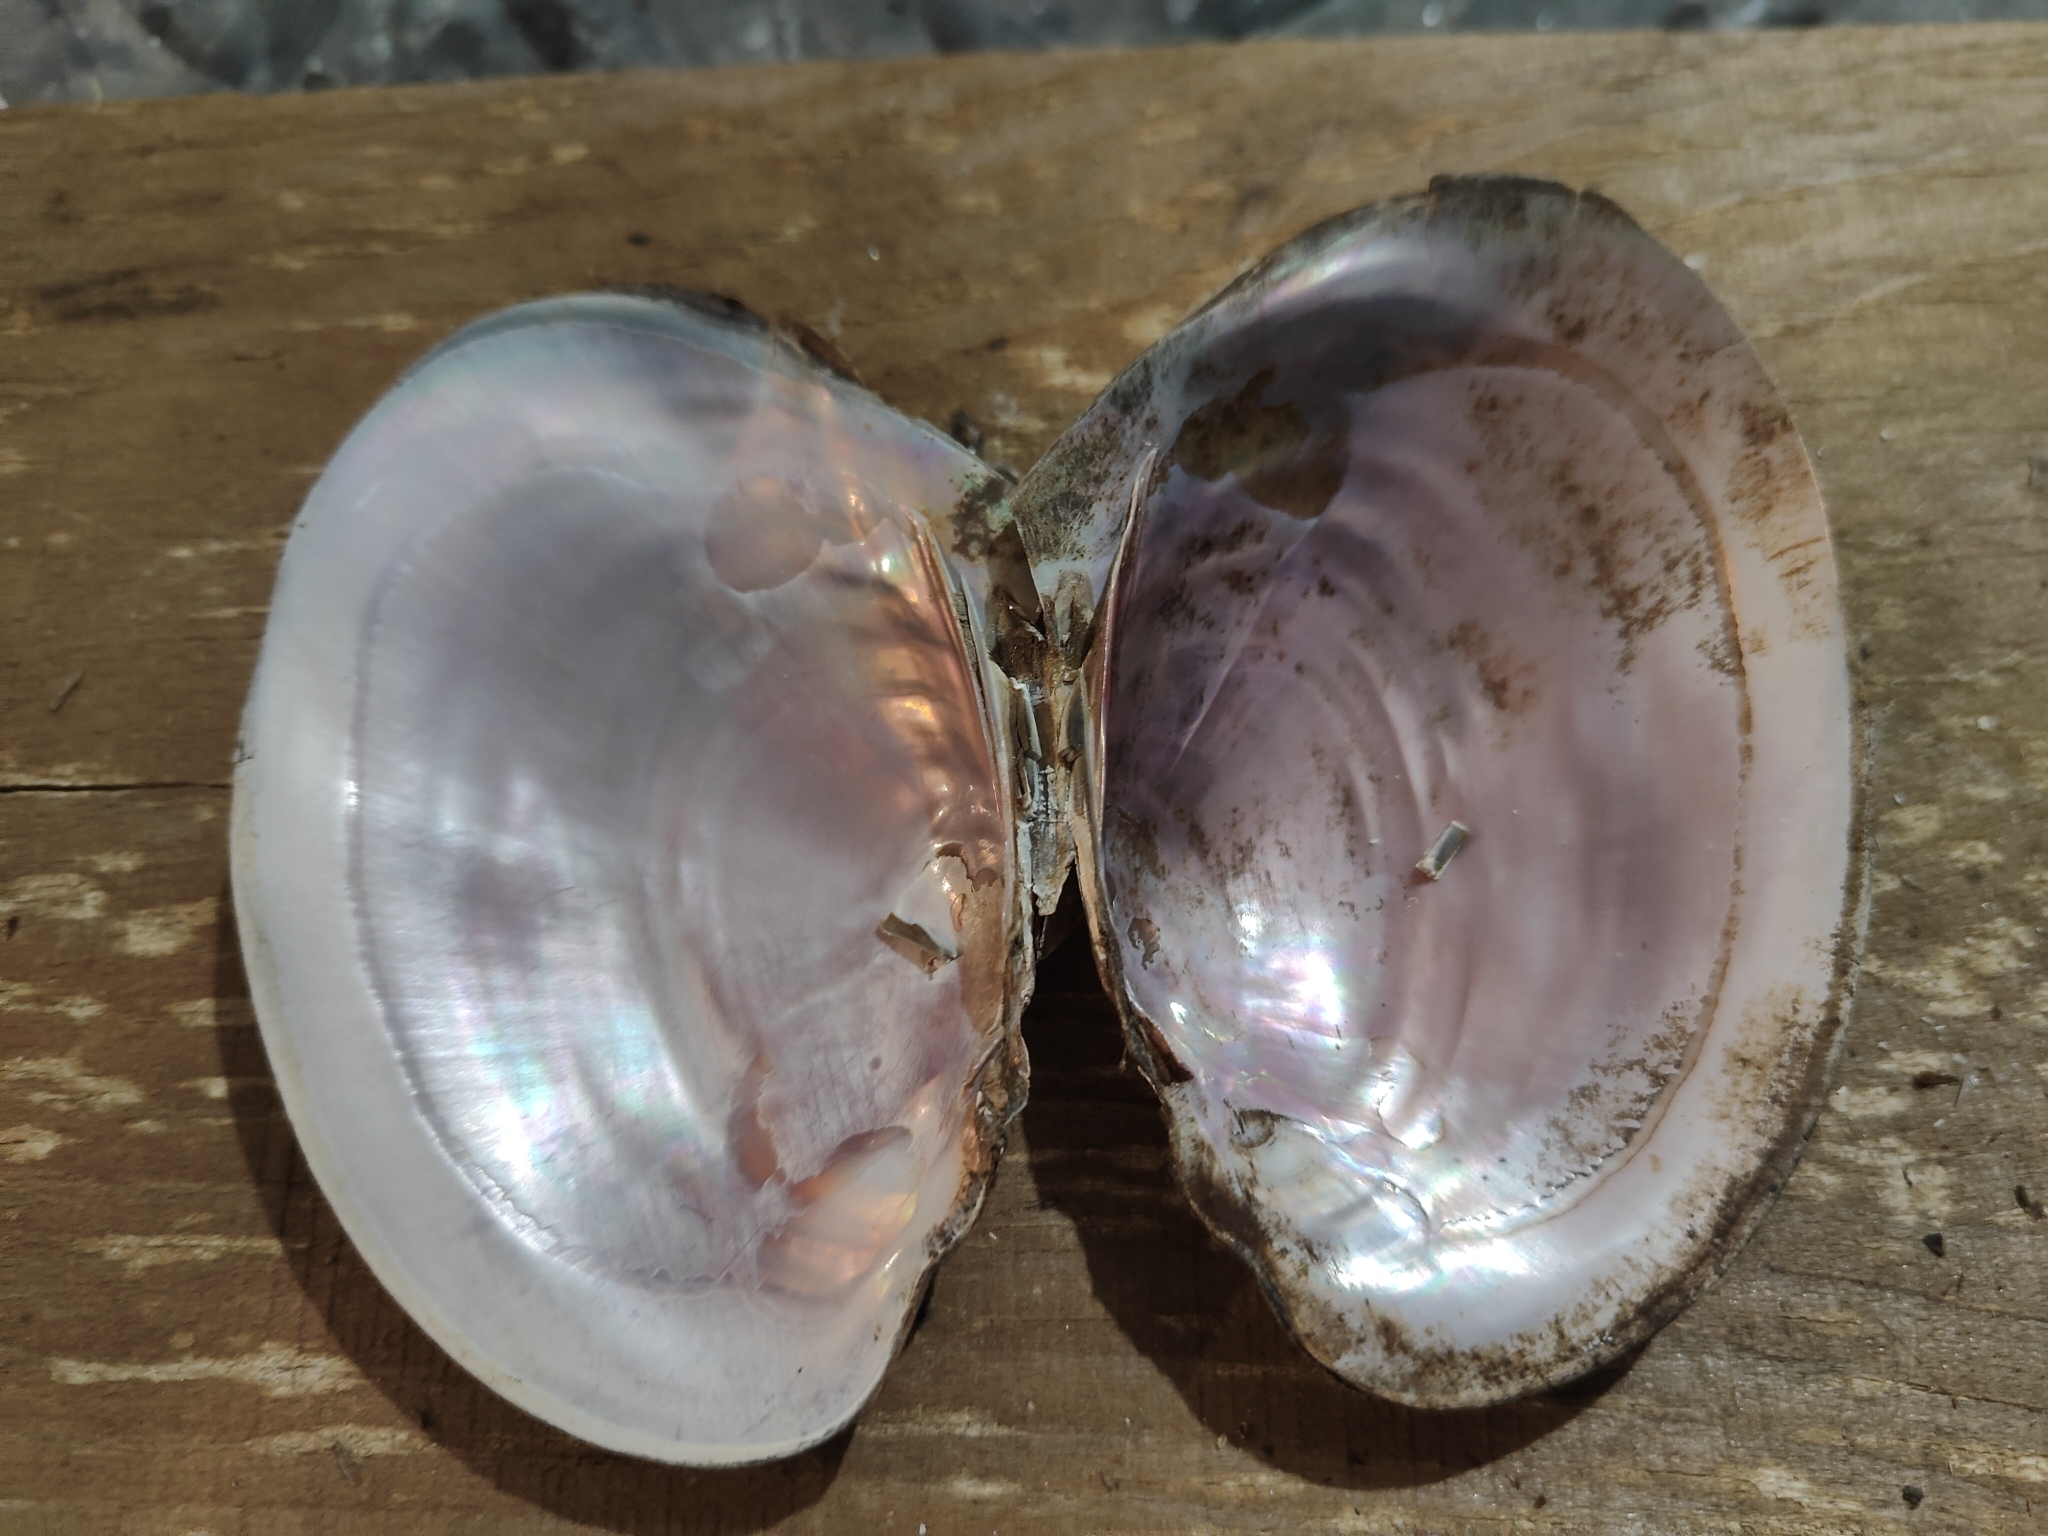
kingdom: Animalia
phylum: Mollusca
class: Bivalvia
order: Unionida
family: Unionidae
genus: Potamilus
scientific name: Potamilus ohiensis
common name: Pink papershell
